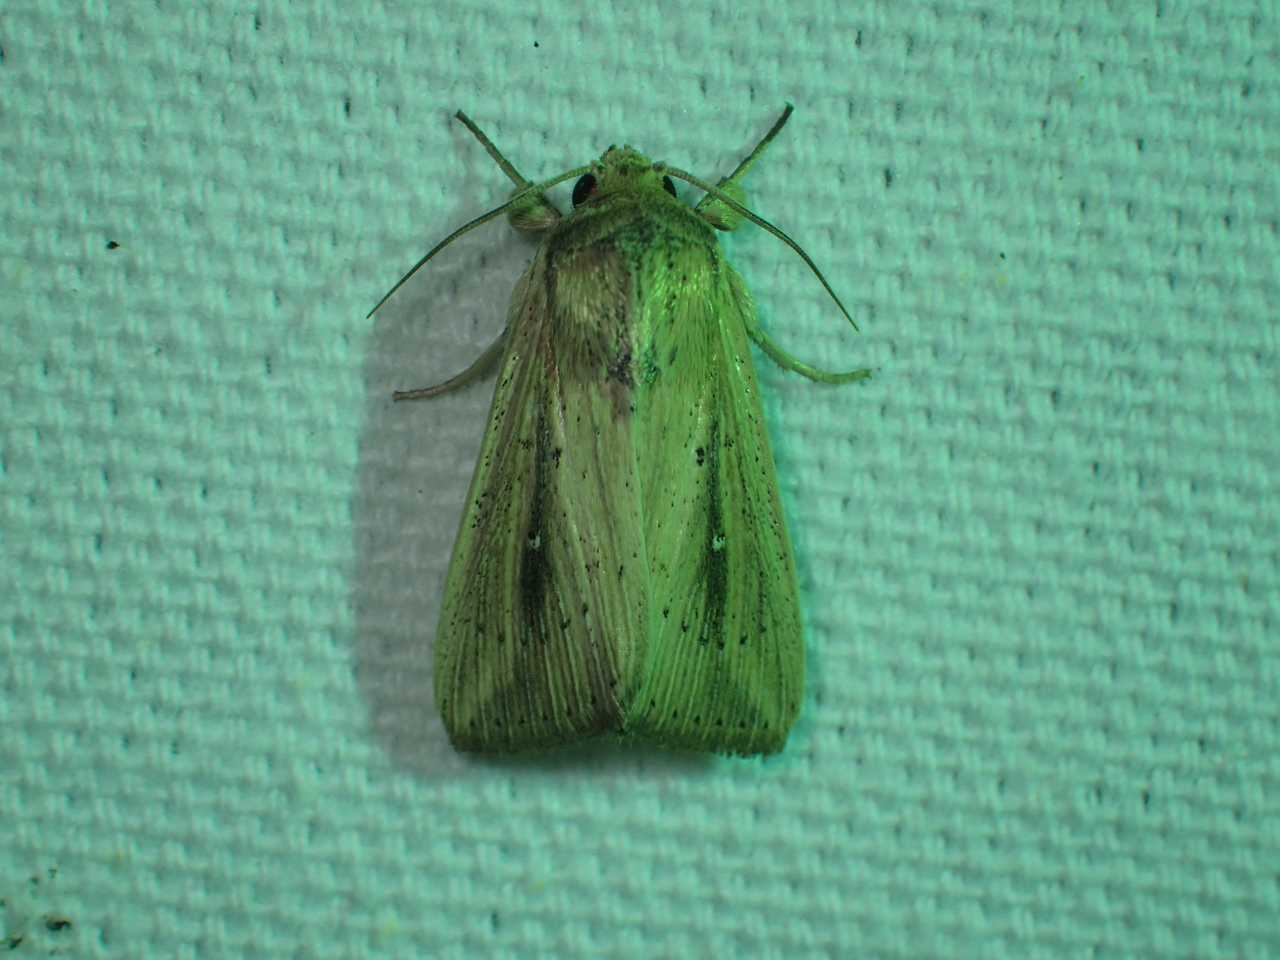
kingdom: Animalia
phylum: Arthropoda
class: Insecta
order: Lepidoptera
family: Noctuidae
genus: Leucania
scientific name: Leucania incognita
